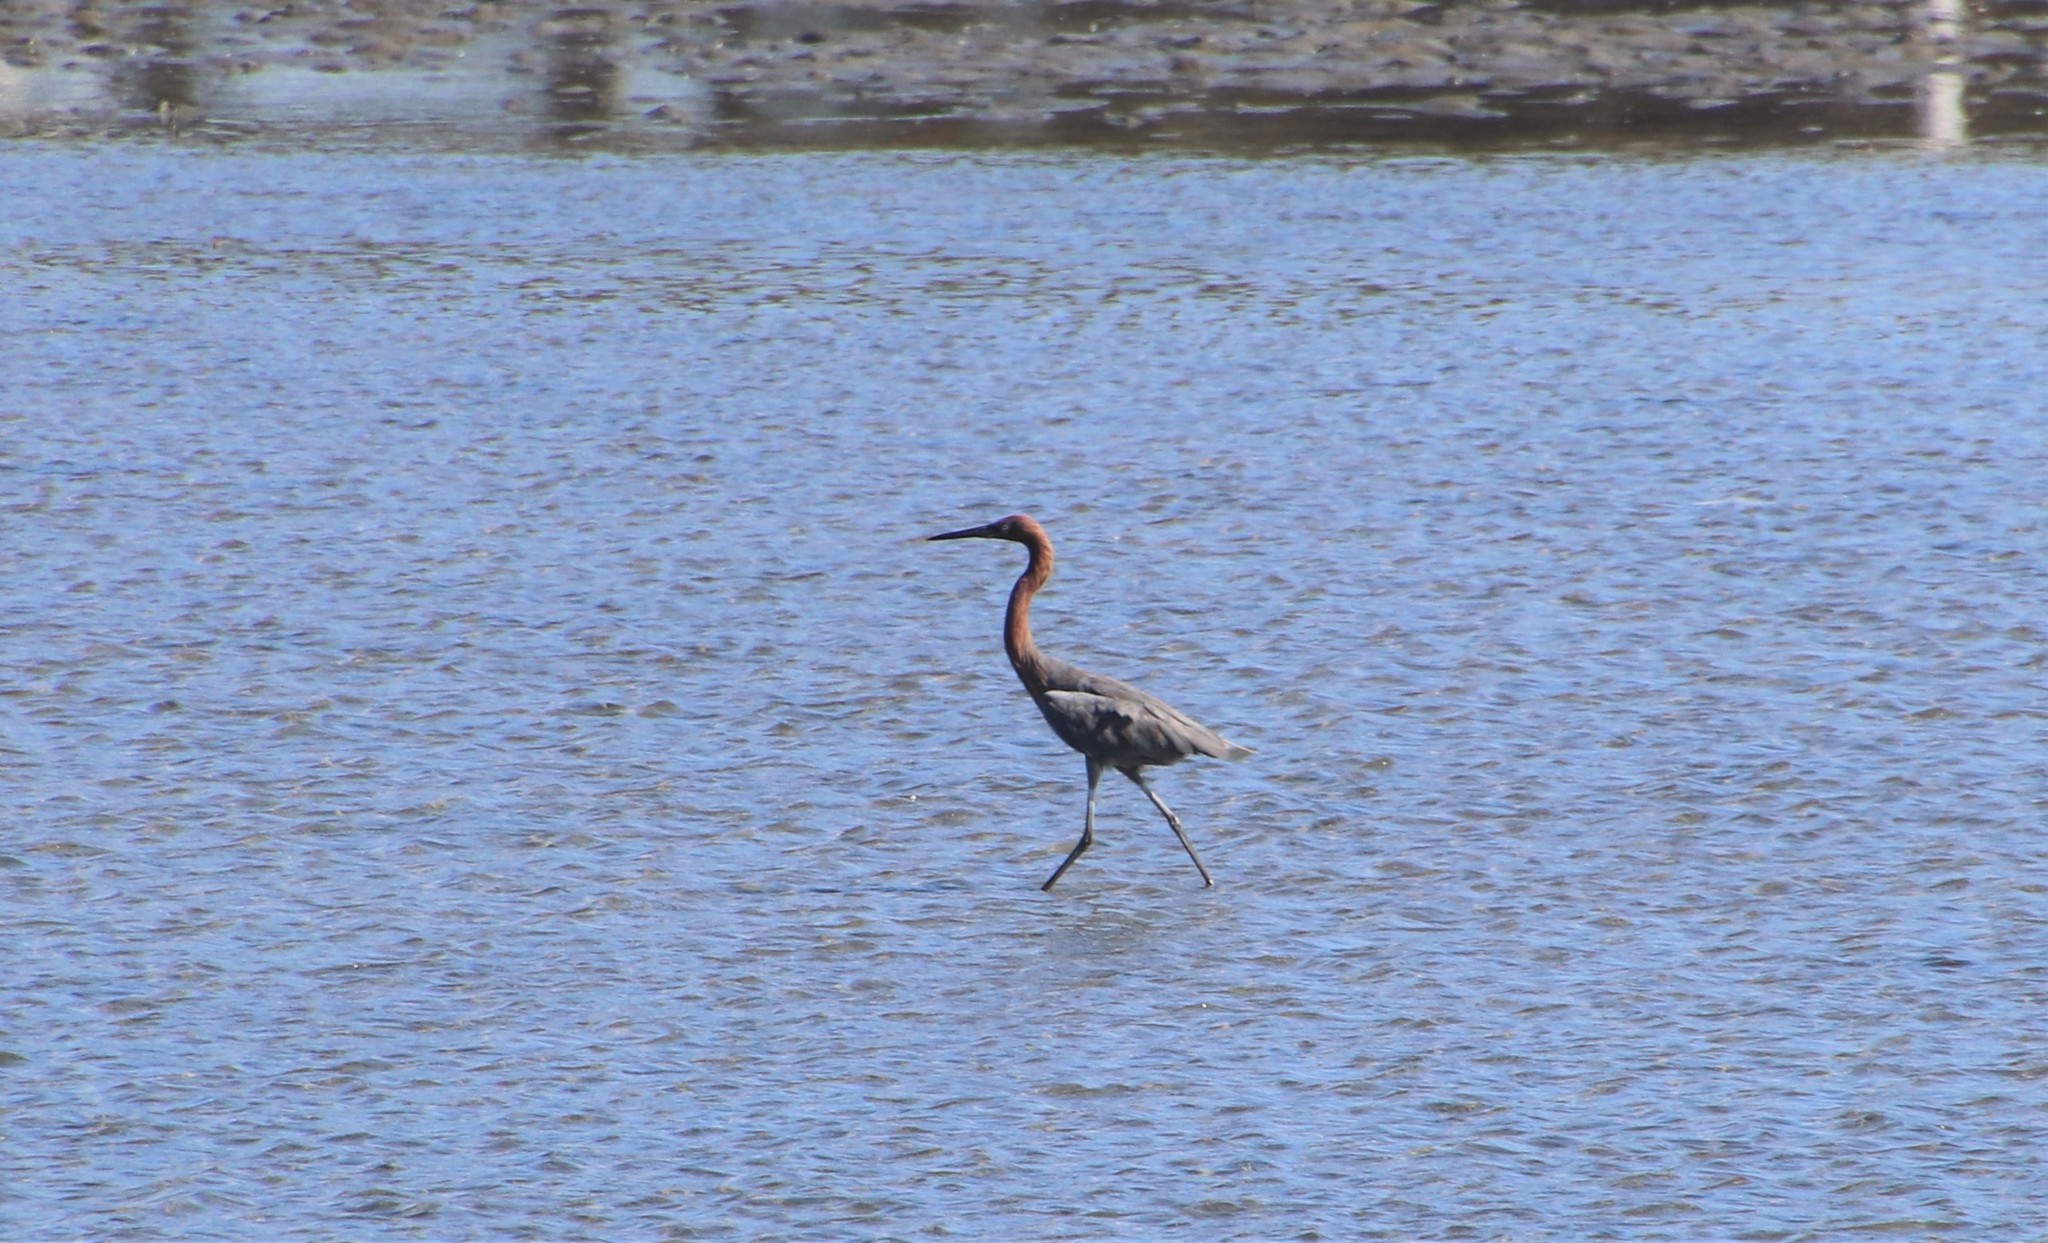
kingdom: Animalia
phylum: Chordata
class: Aves
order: Pelecaniformes
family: Ardeidae
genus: Egretta
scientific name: Egretta rufescens
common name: Reddish egret
